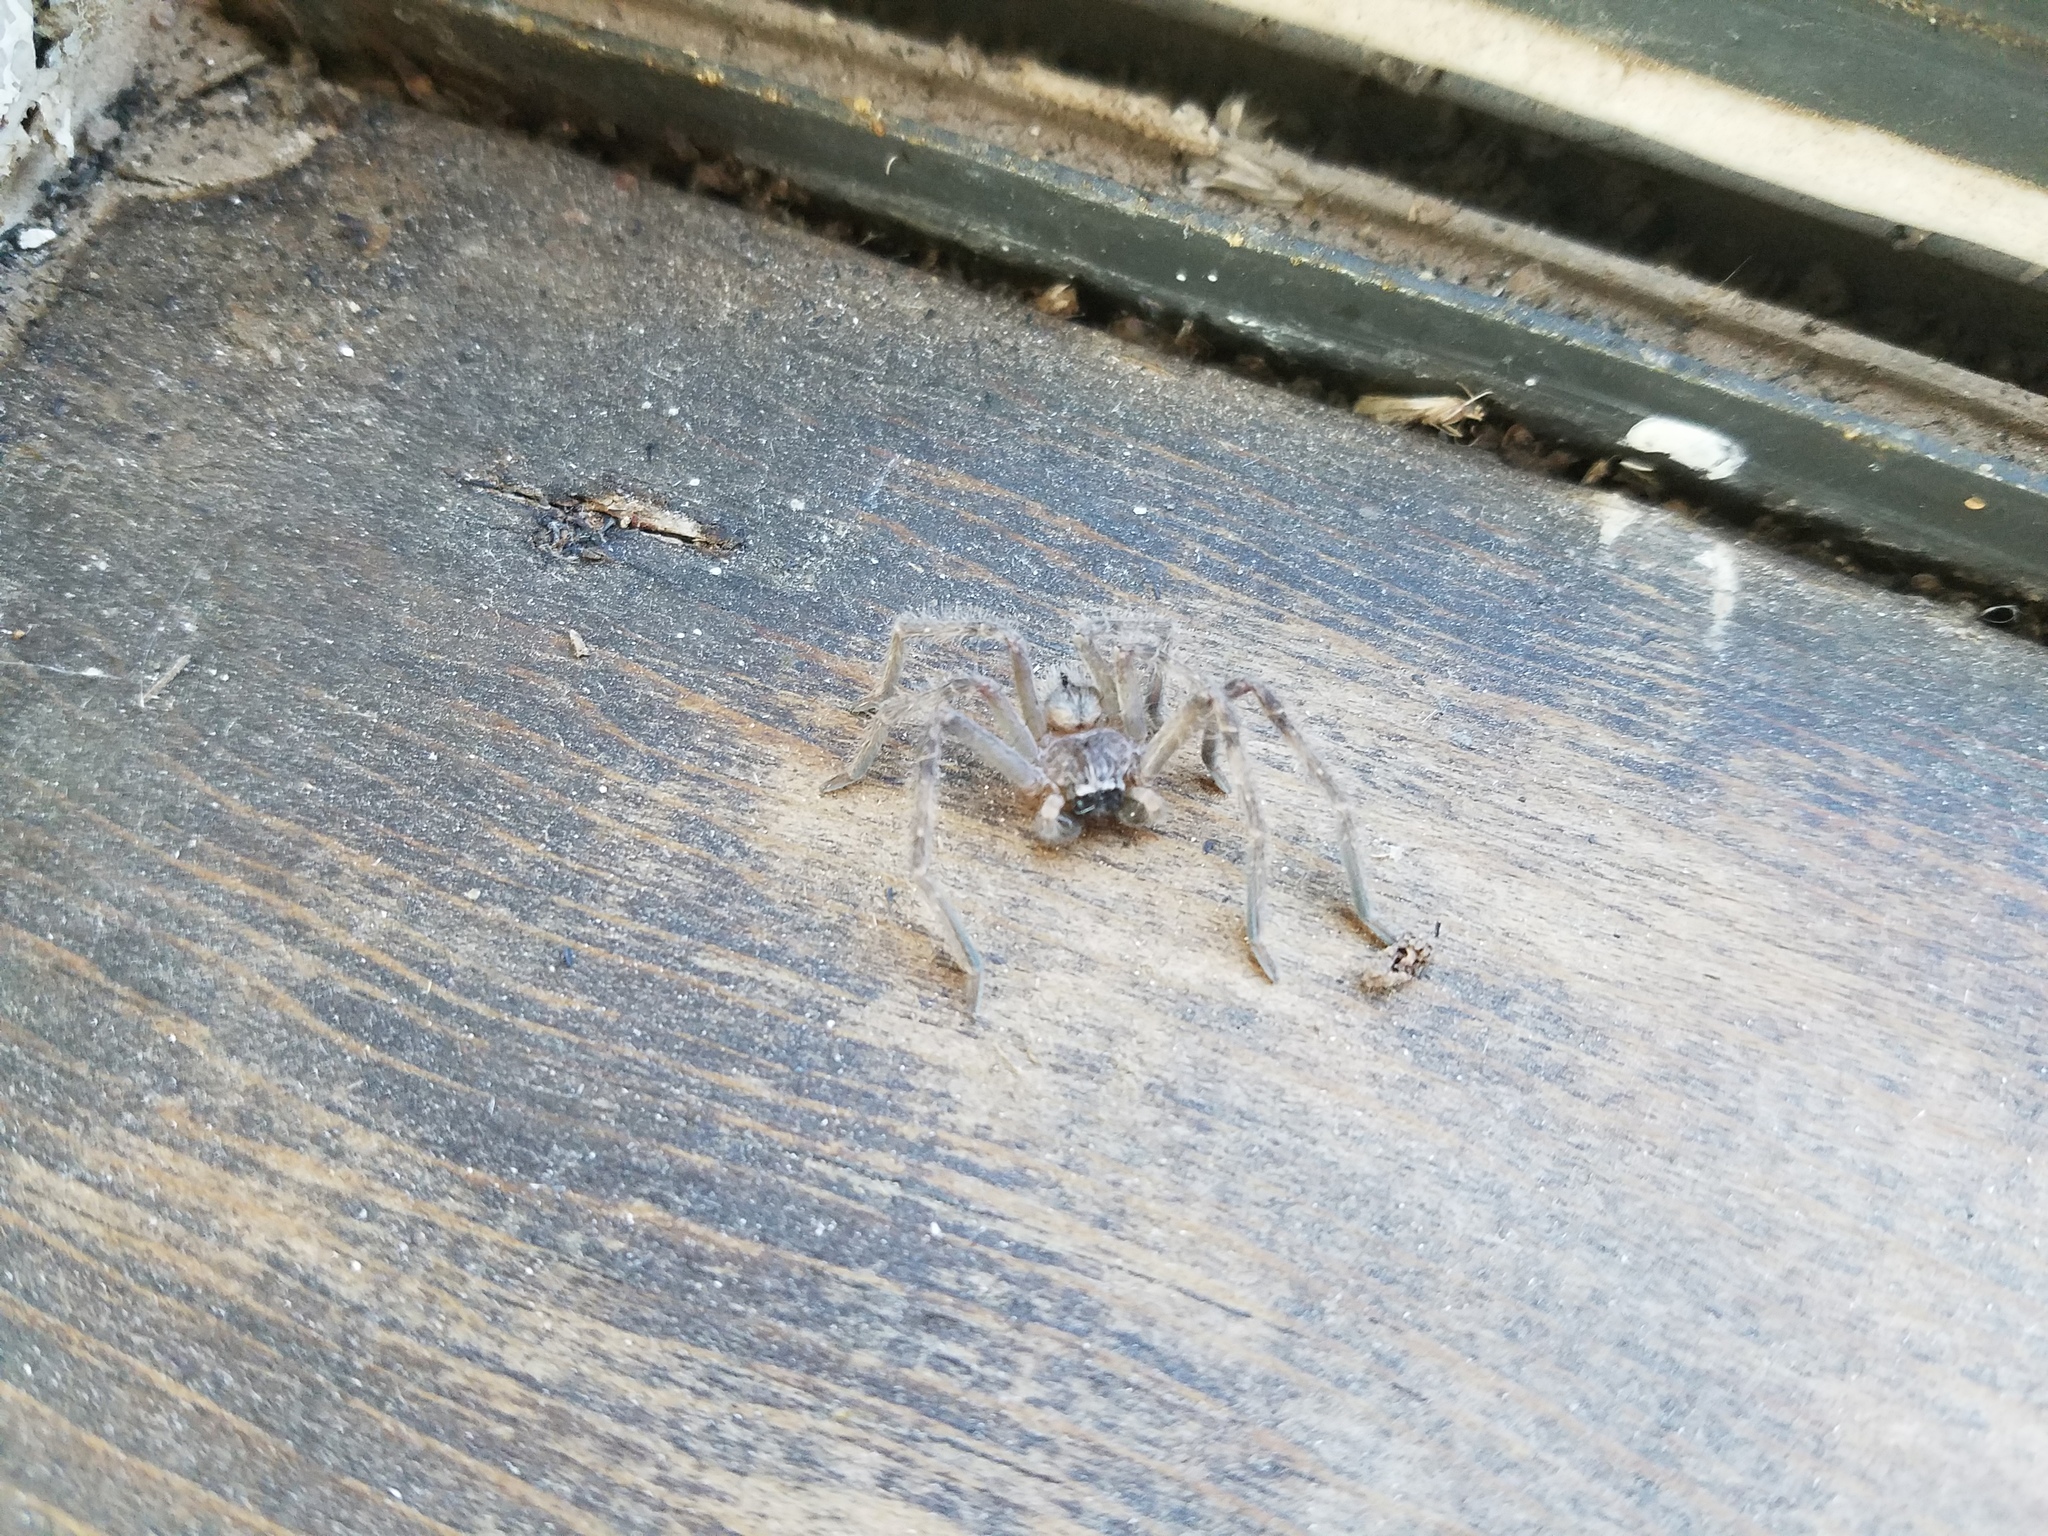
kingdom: Animalia
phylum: Arthropoda
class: Arachnida
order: Araneae
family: Sparassidae
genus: Olios
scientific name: Olios giganteus
